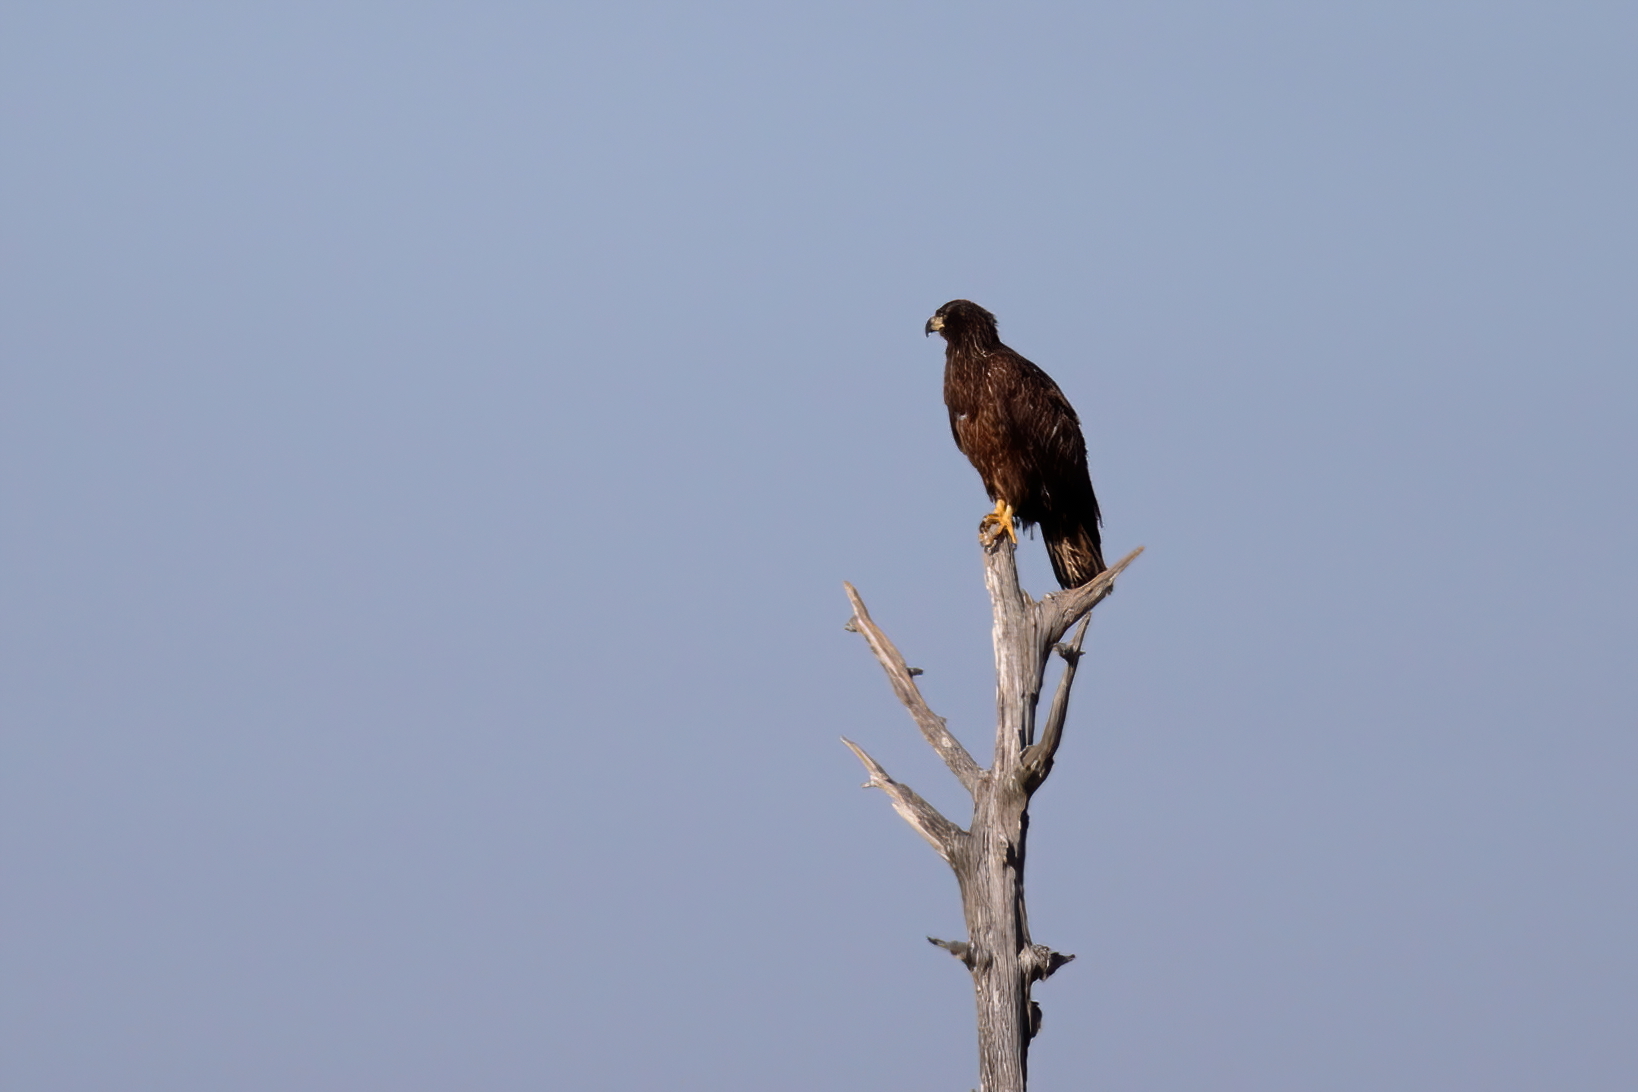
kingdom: Animalia
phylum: Chordata
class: Aves
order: Accipitriformes
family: Accipitridae
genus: Haliaeetus
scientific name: Haliaeetus leucocephalus
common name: Bald eagle
